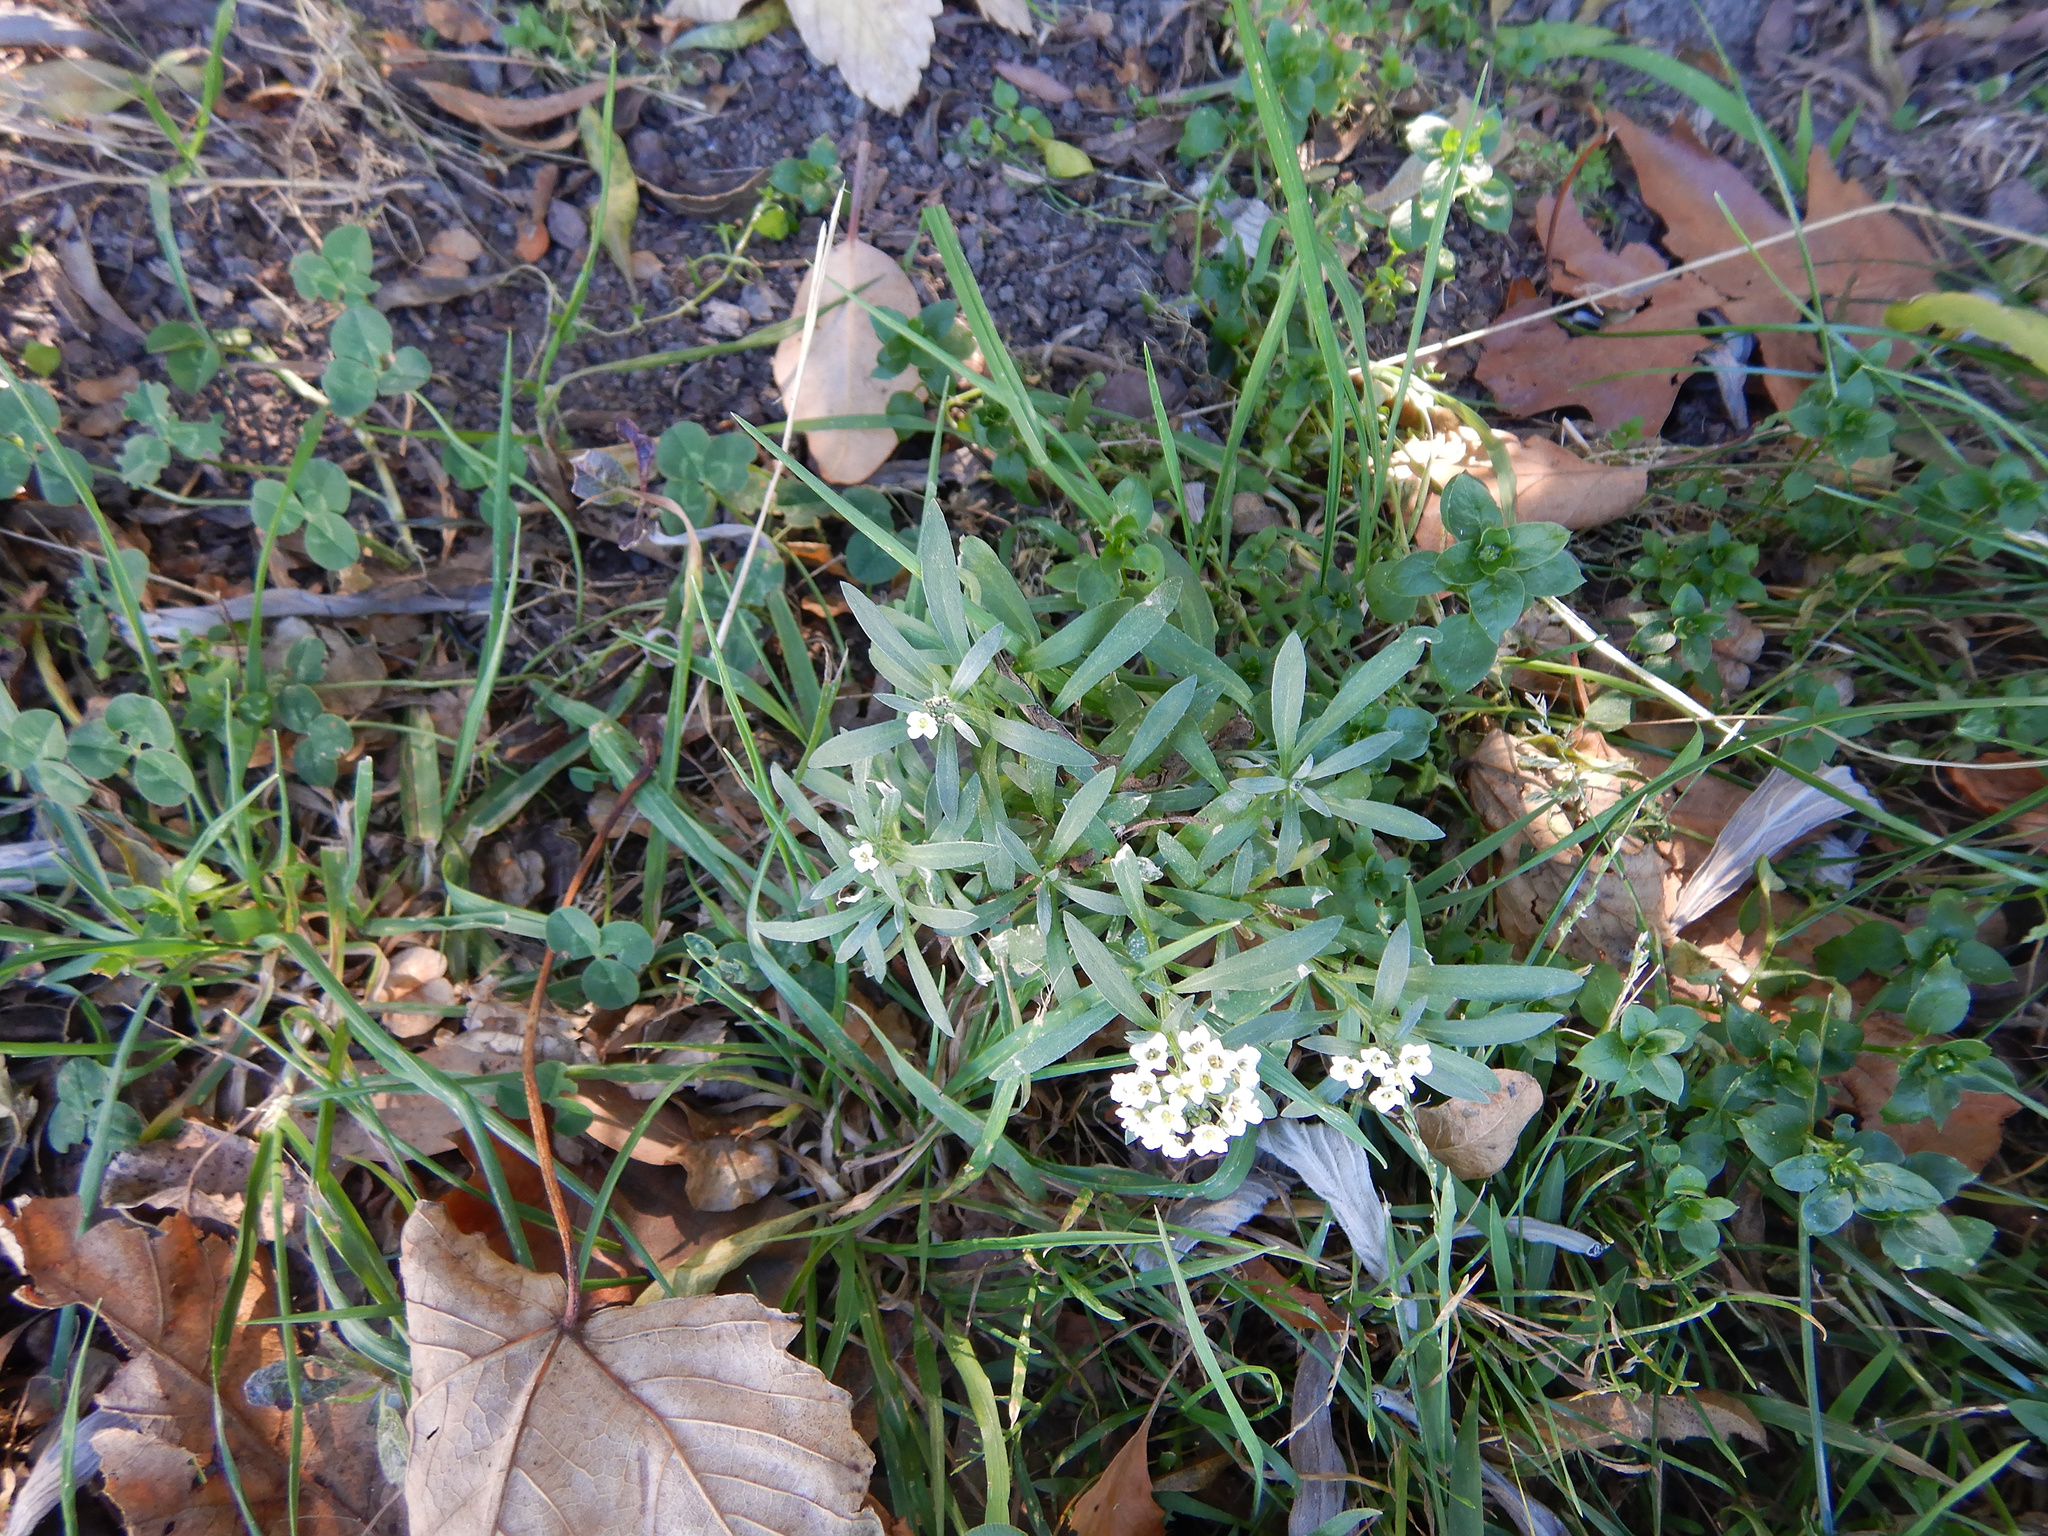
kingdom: Plantae
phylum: Tracheophyta
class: Magnoliopsida
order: Brassicales
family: Brassicaceae
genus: Lobularia
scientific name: Lobularia maritima
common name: Sweet alison
